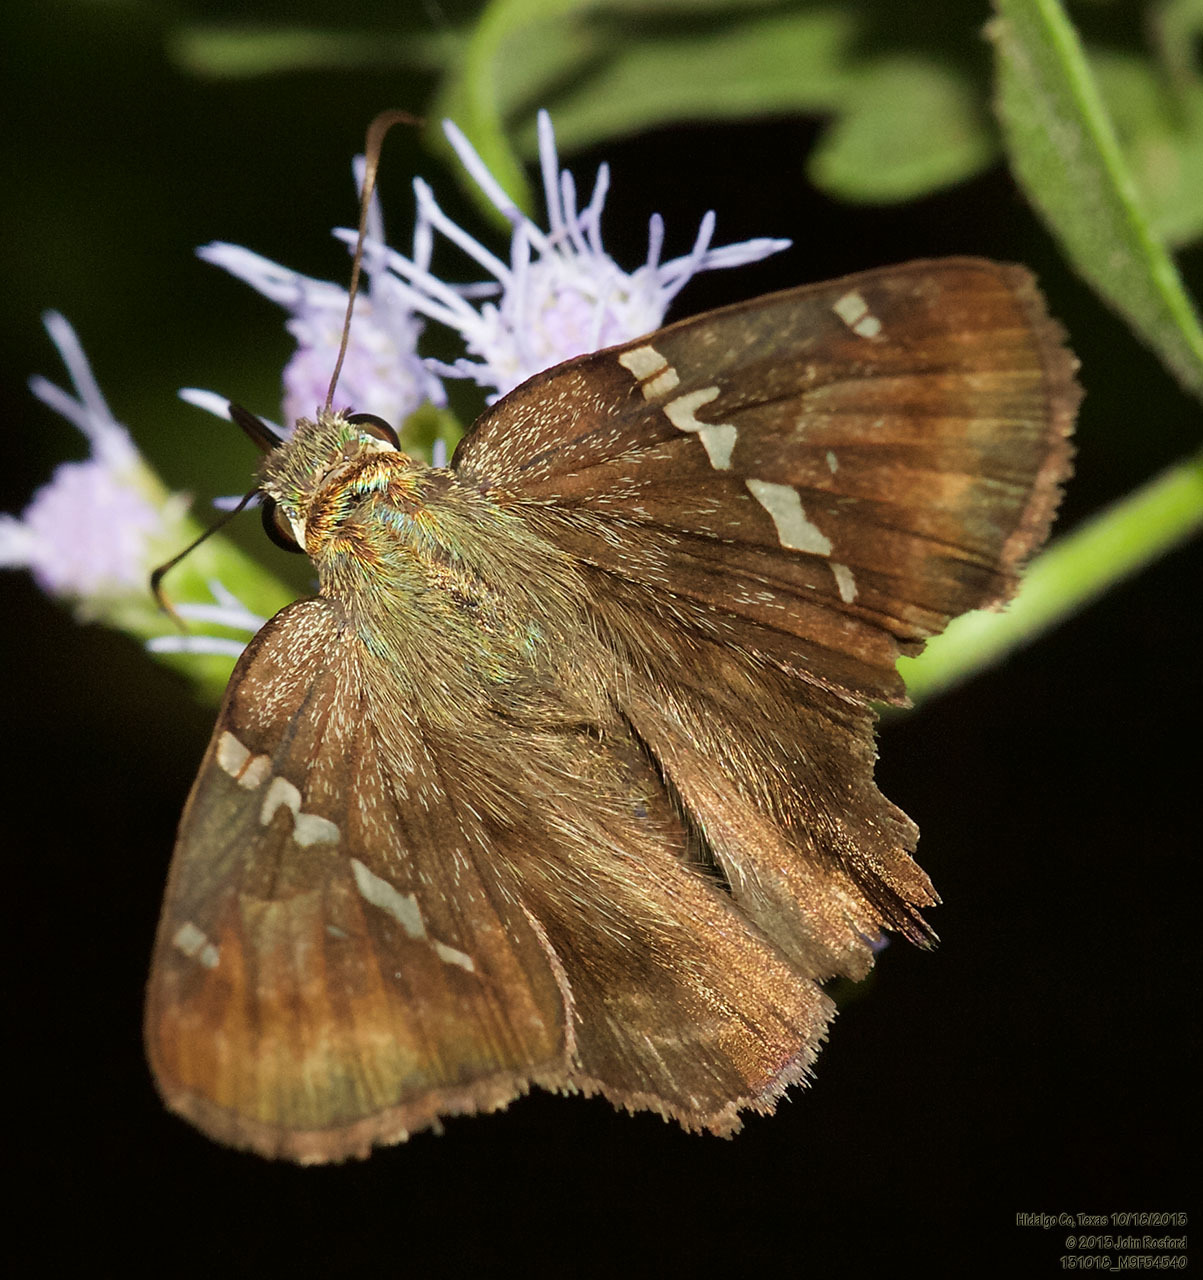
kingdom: Animalia
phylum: Arthropoda
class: Insecta
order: Lepidoptera
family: Hesperiidae
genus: Autochton
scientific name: Autochton potrillo
